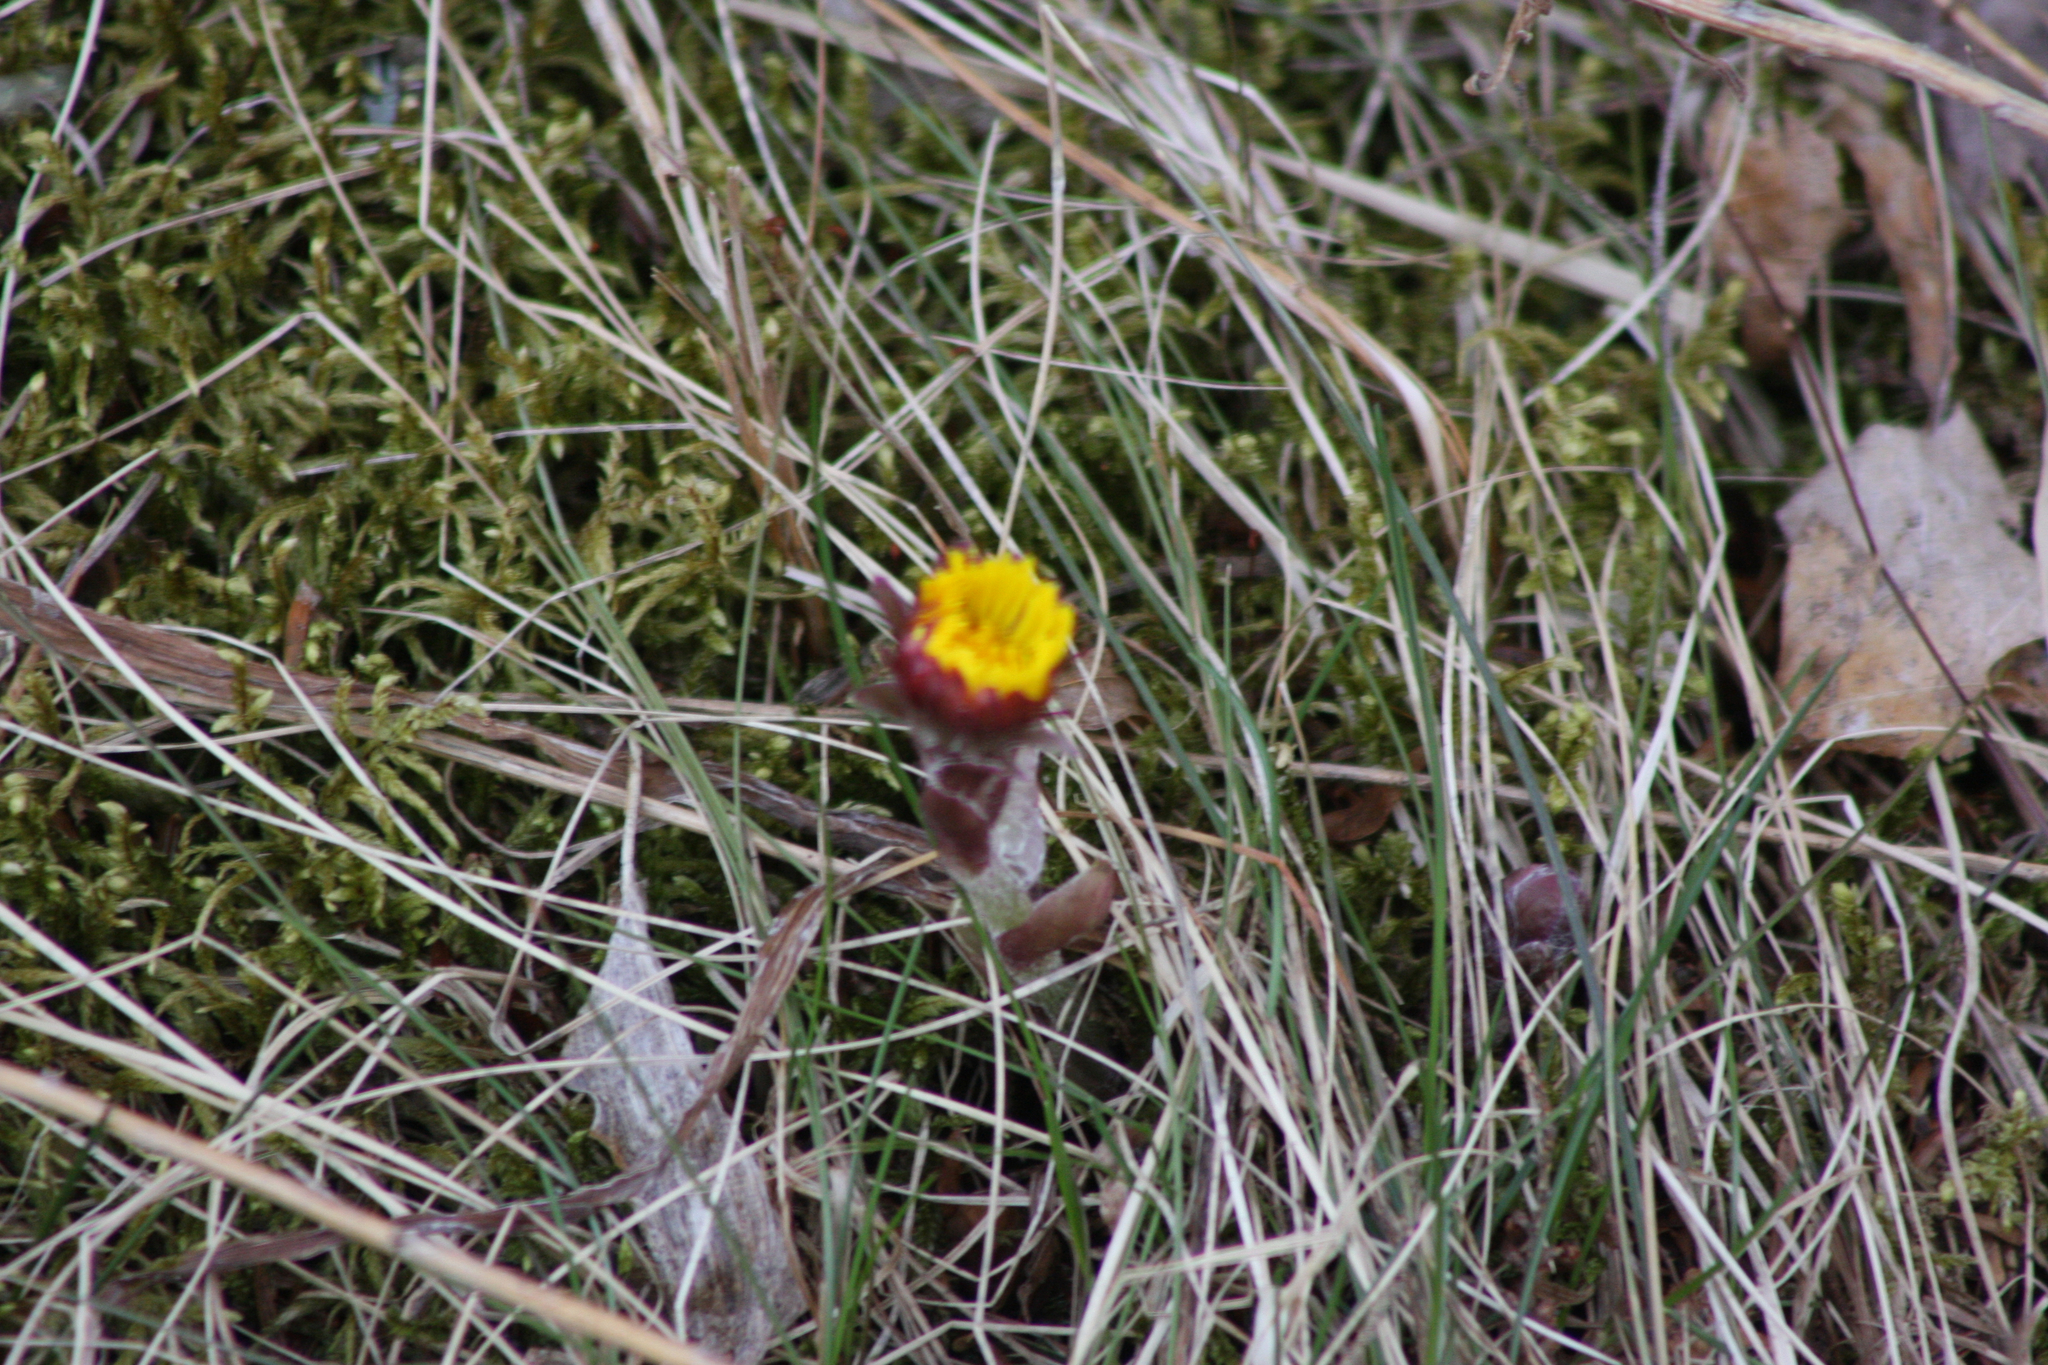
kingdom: Plantae
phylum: Tracheophyta
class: Magnoliopsida
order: Asterales
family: Asteraceae
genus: Tussilago
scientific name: Tussilago farfara
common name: Coltsfoot
